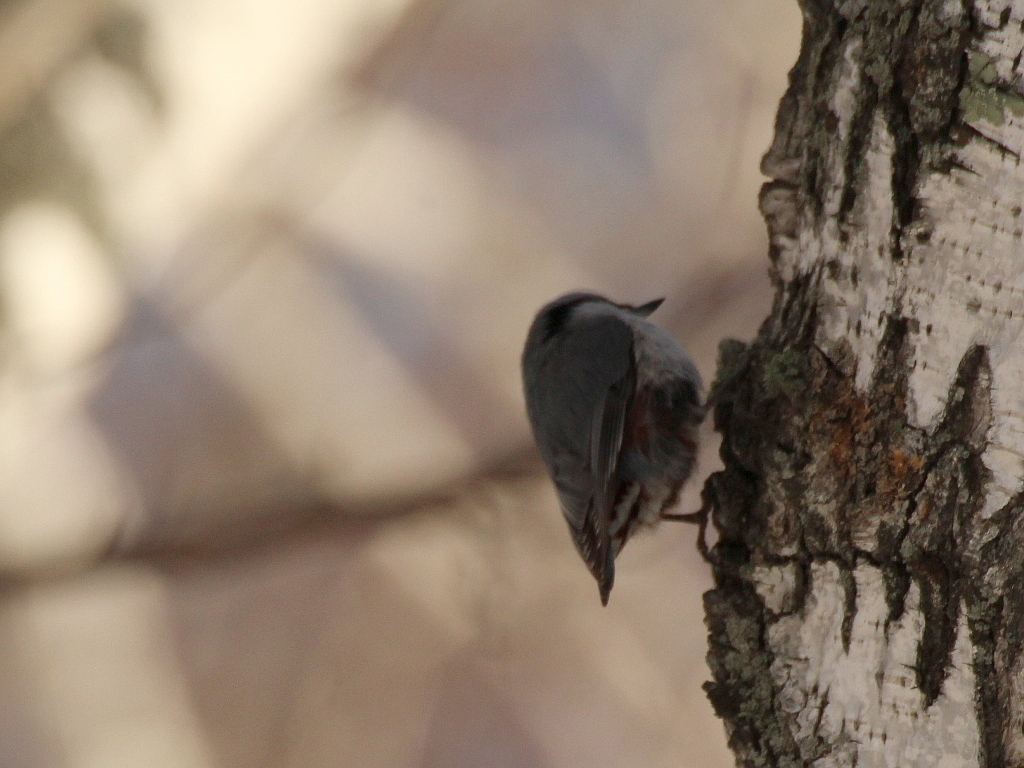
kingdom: Animalia
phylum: Chordata
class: Aves
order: Passeriformes
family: Sittidae
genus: Sitta
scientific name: Sitta europaea
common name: Eurasian nuthatch
